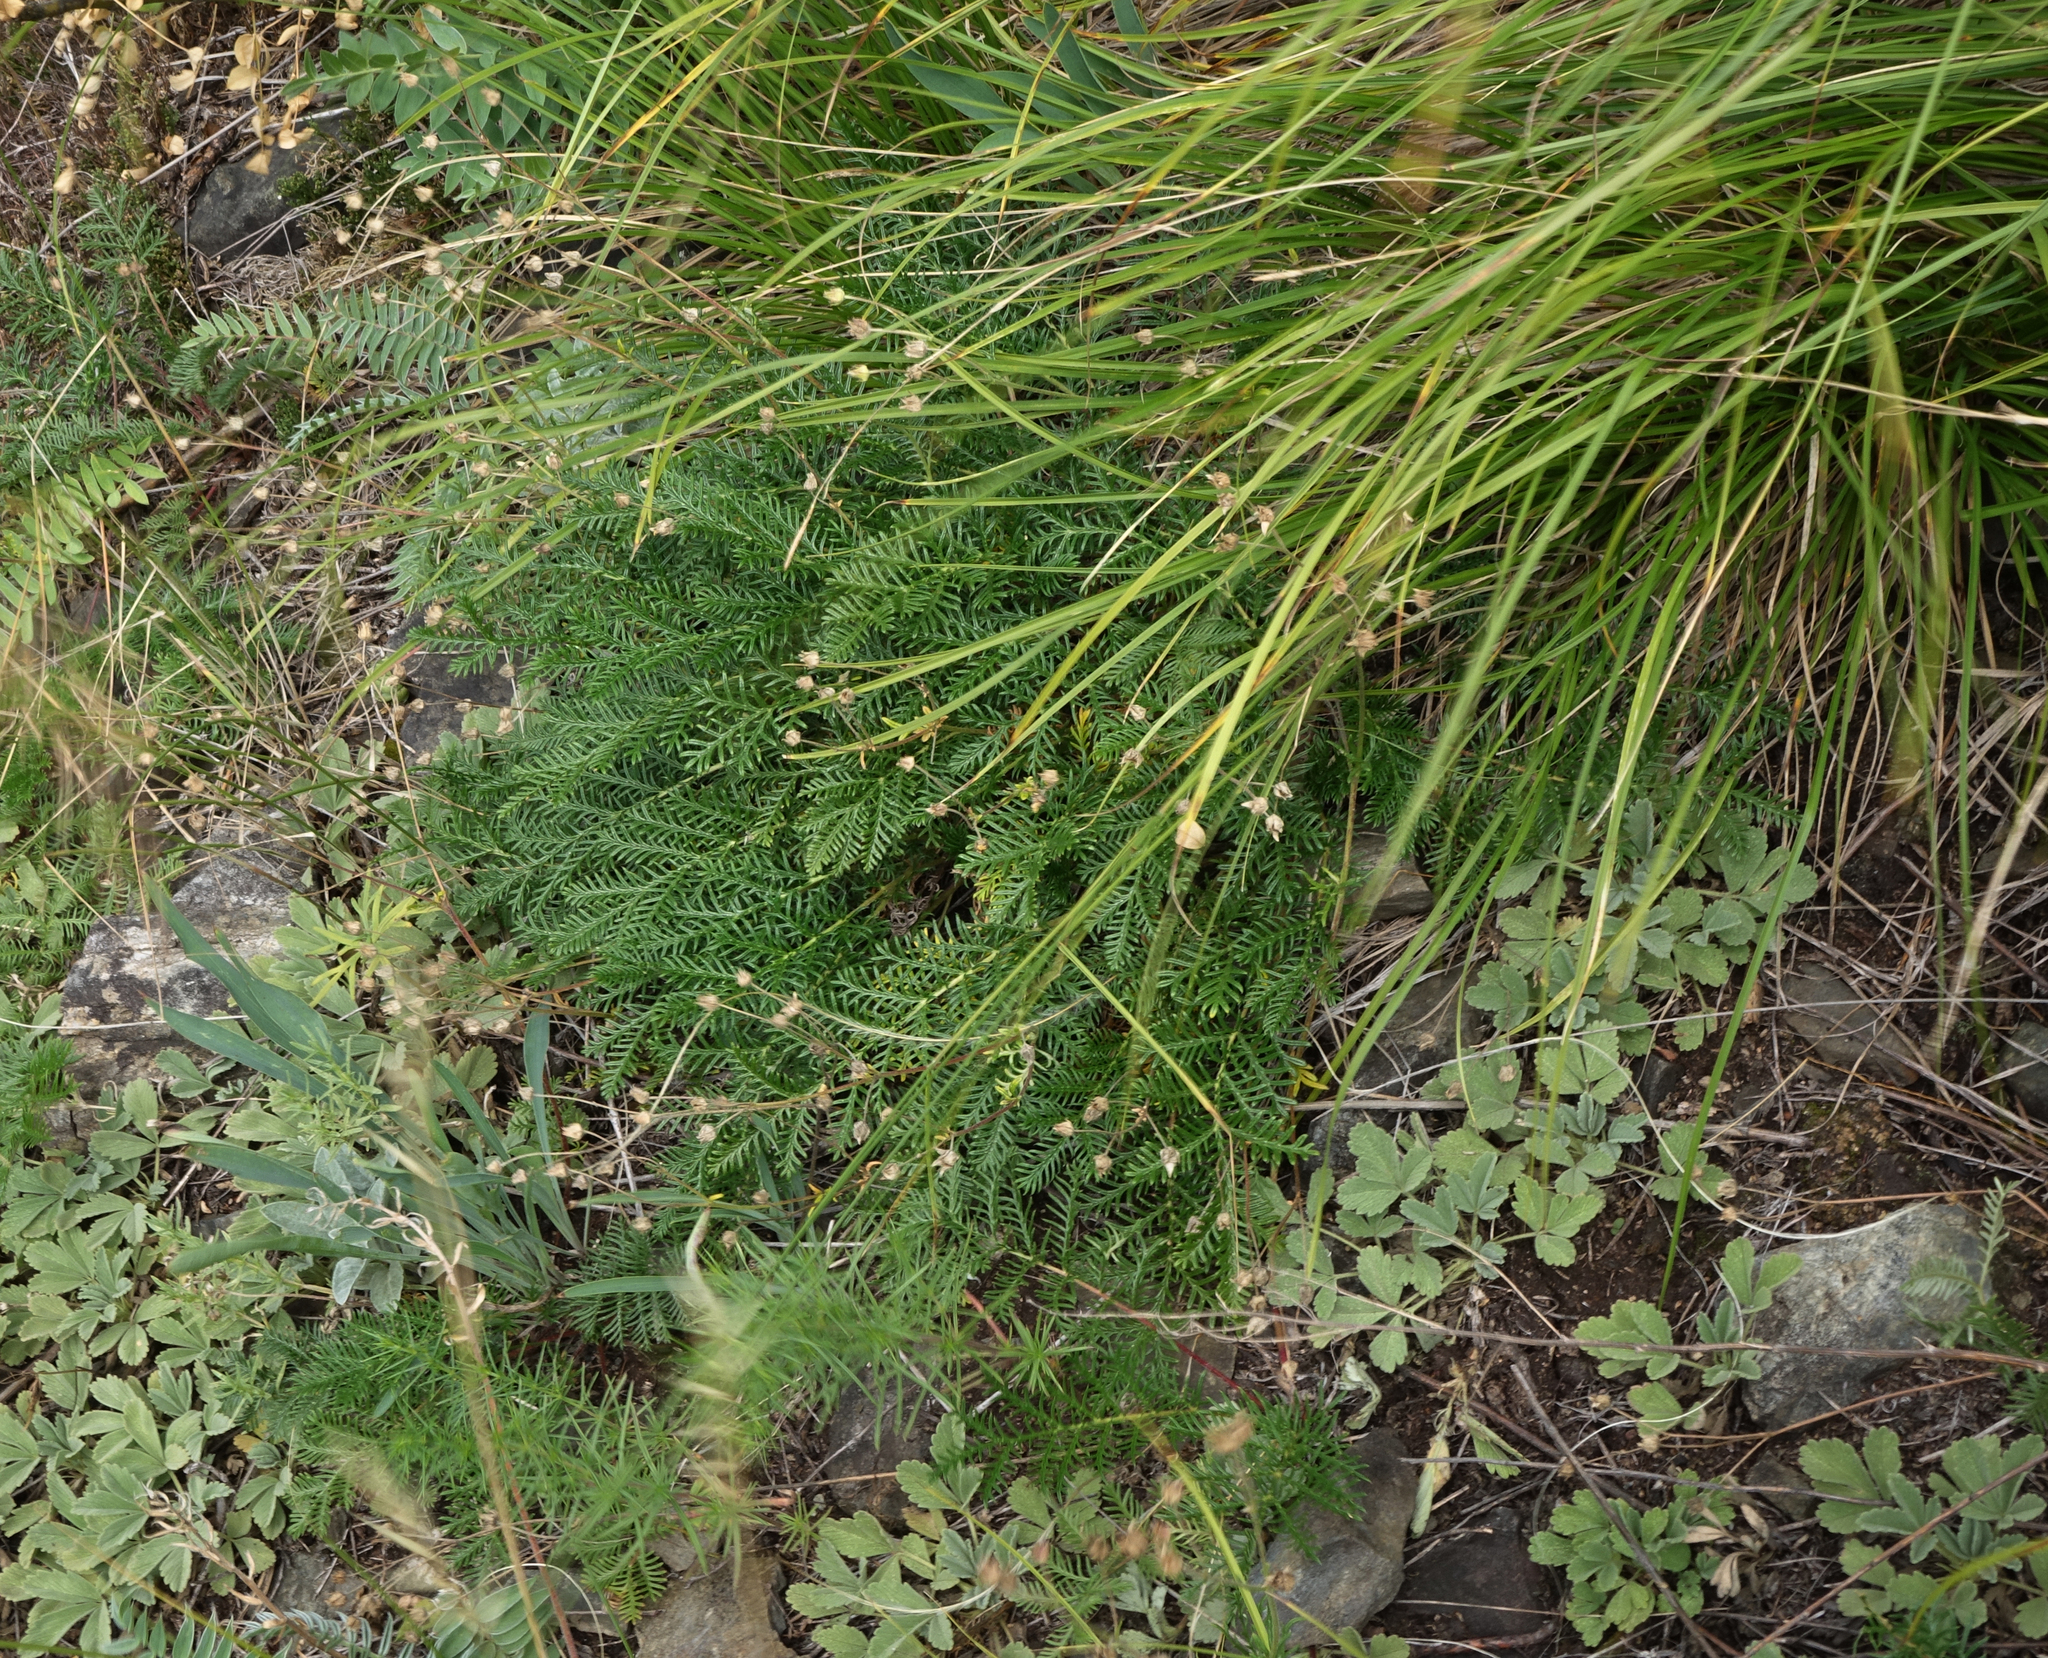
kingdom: Plantae
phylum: Tracheophyta
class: Magnoliopsida
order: Rosales
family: Rosaceae
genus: Potentilla
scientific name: Potentilla sericea
